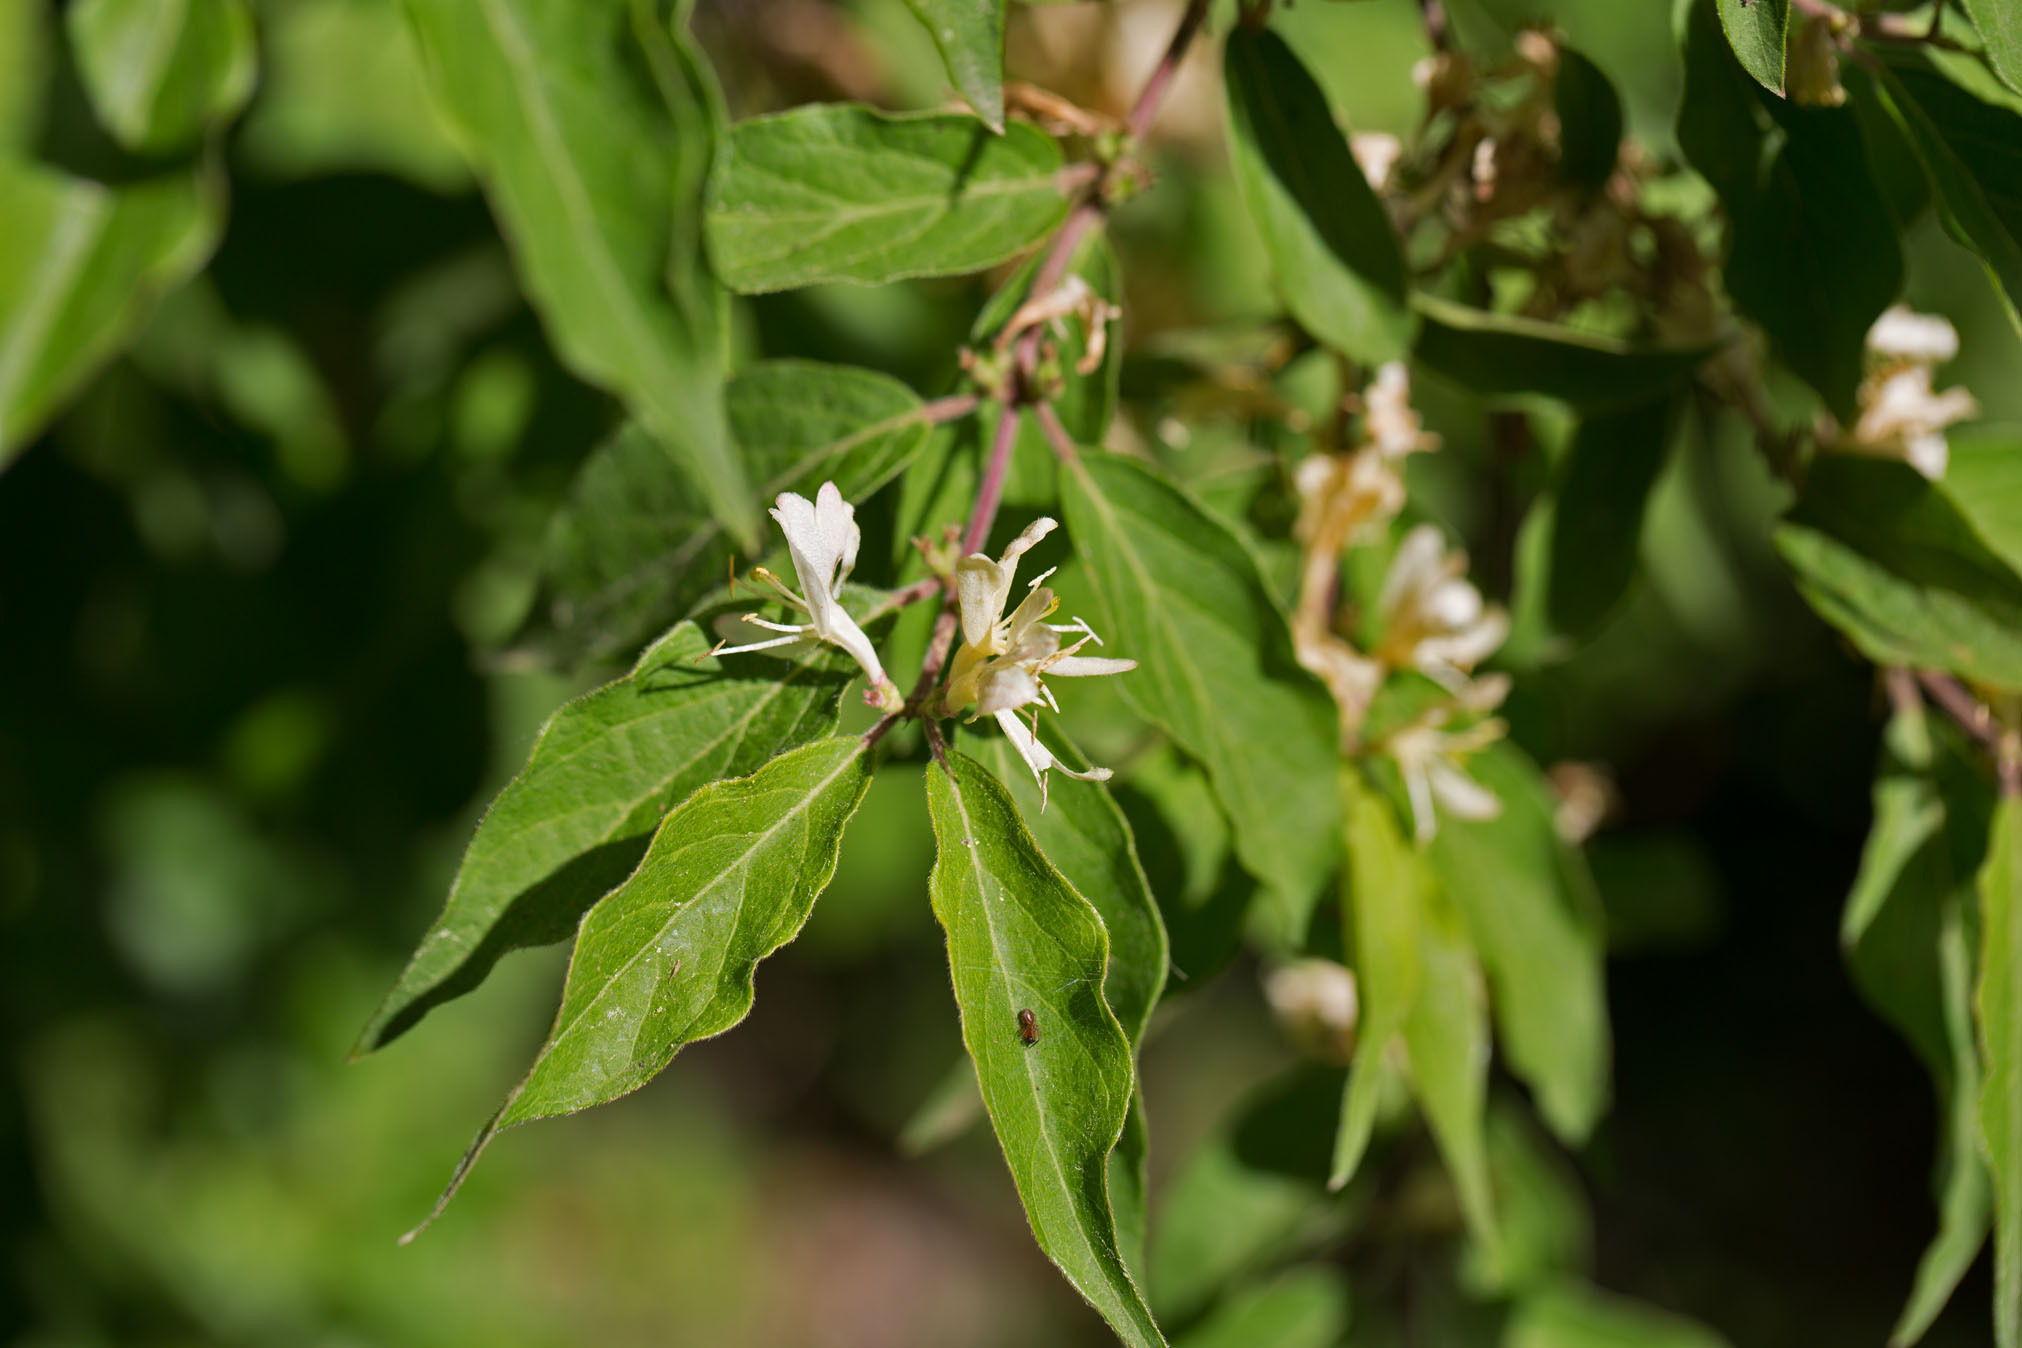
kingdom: Plantae
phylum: Tracheophyta
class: Magnoliopsida
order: Dipsacales
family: Caprifoliaceae
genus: Lonicera
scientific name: Lonicera maackii
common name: Amur honeysuckle
